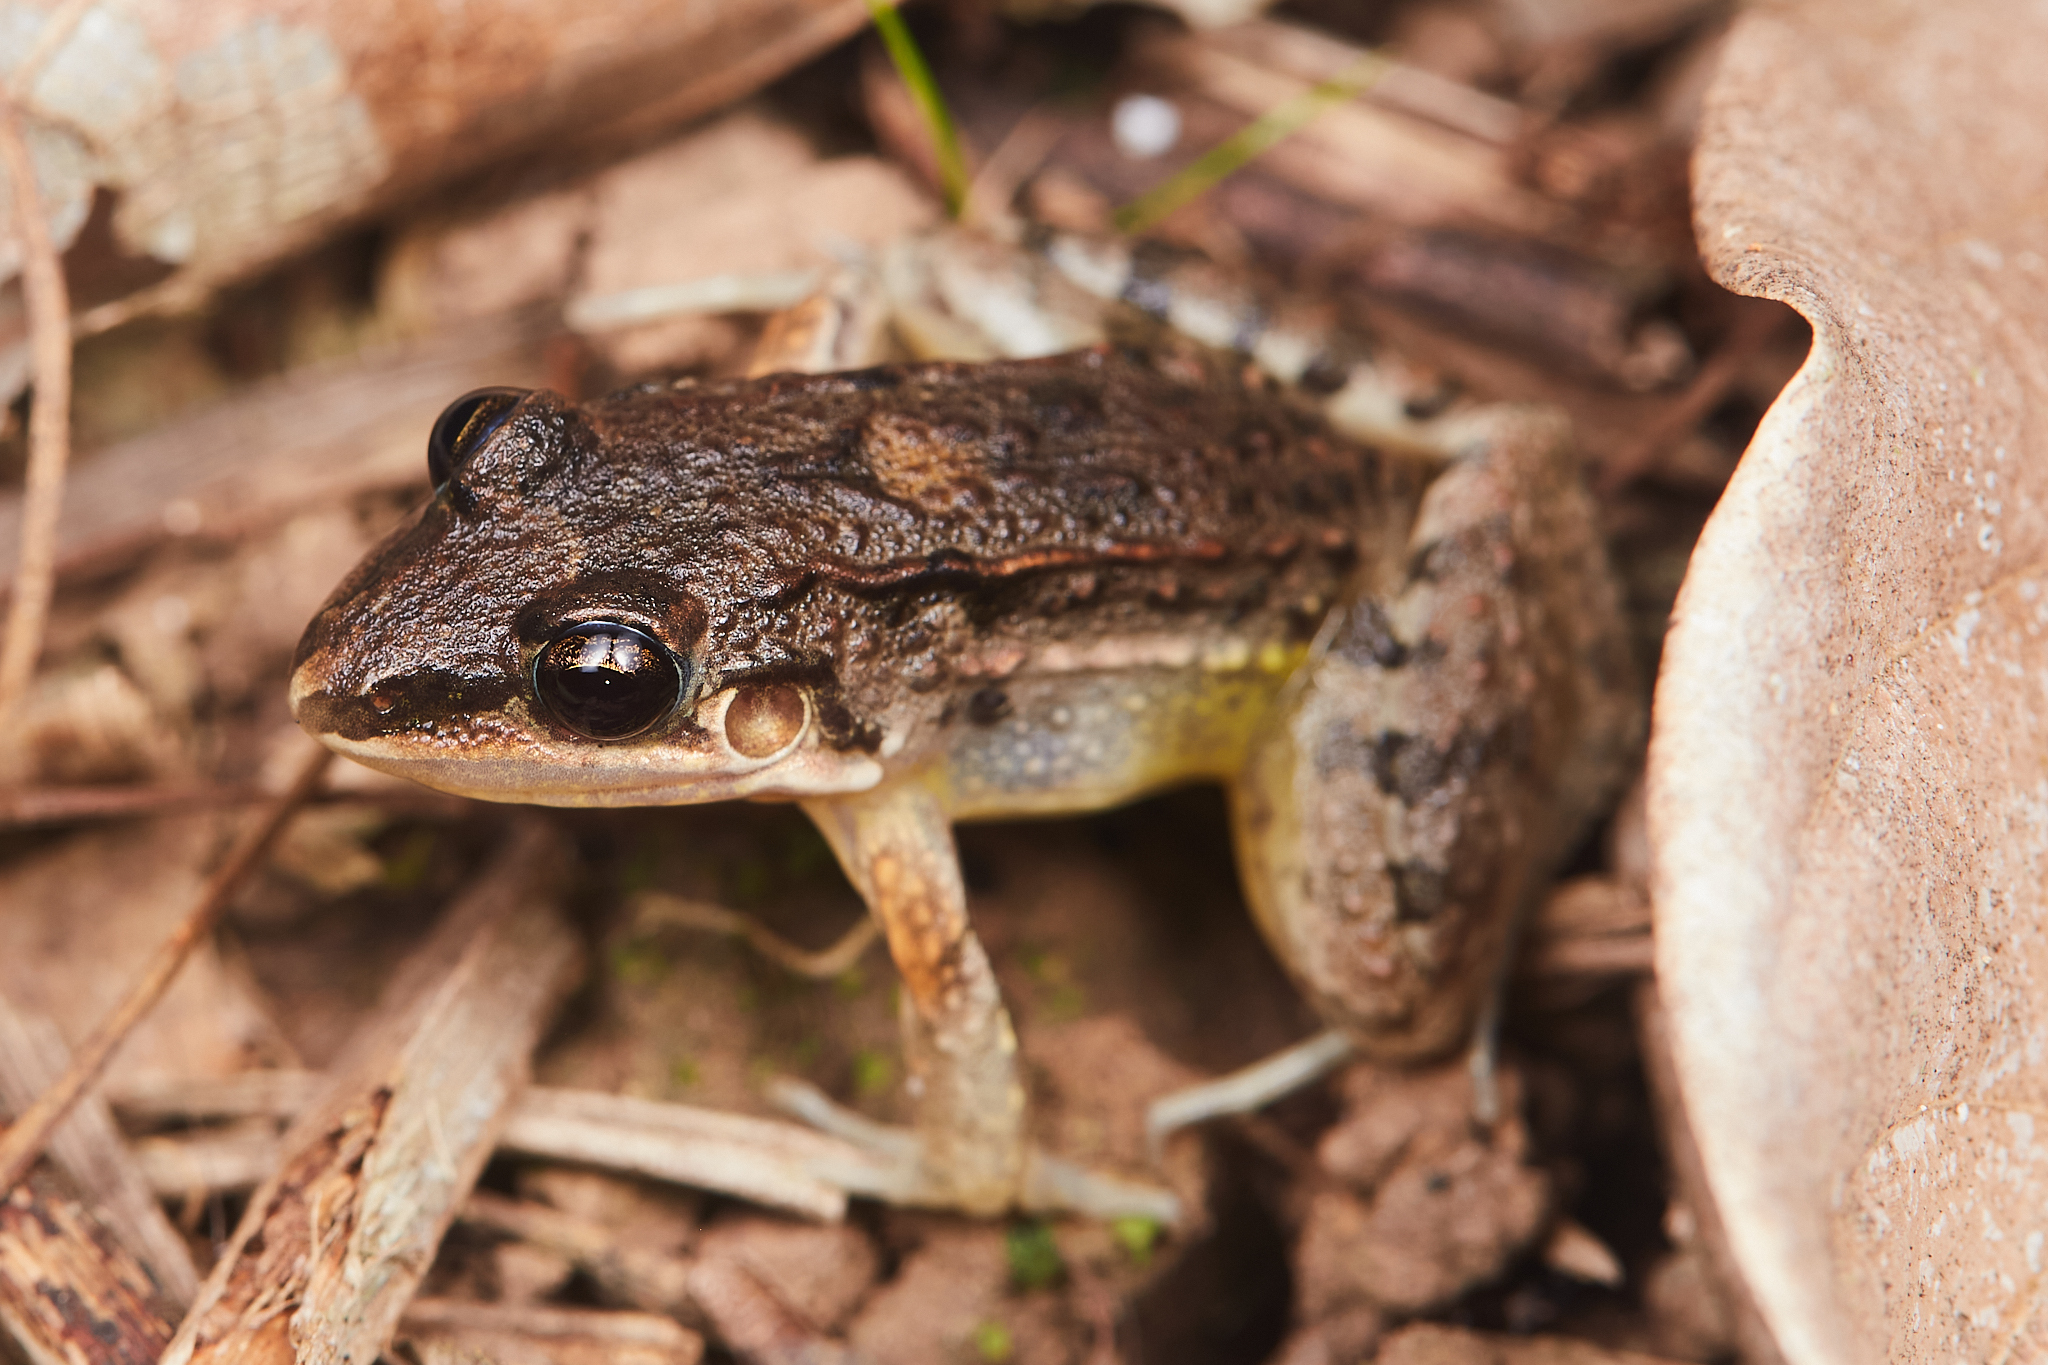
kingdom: Animalia
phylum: Chordata
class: Amphibia
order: Anura
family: Leptodactylidae
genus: Leptodactylus
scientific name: Leptodactylus fragilis
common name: Mexican white-lipped frog
